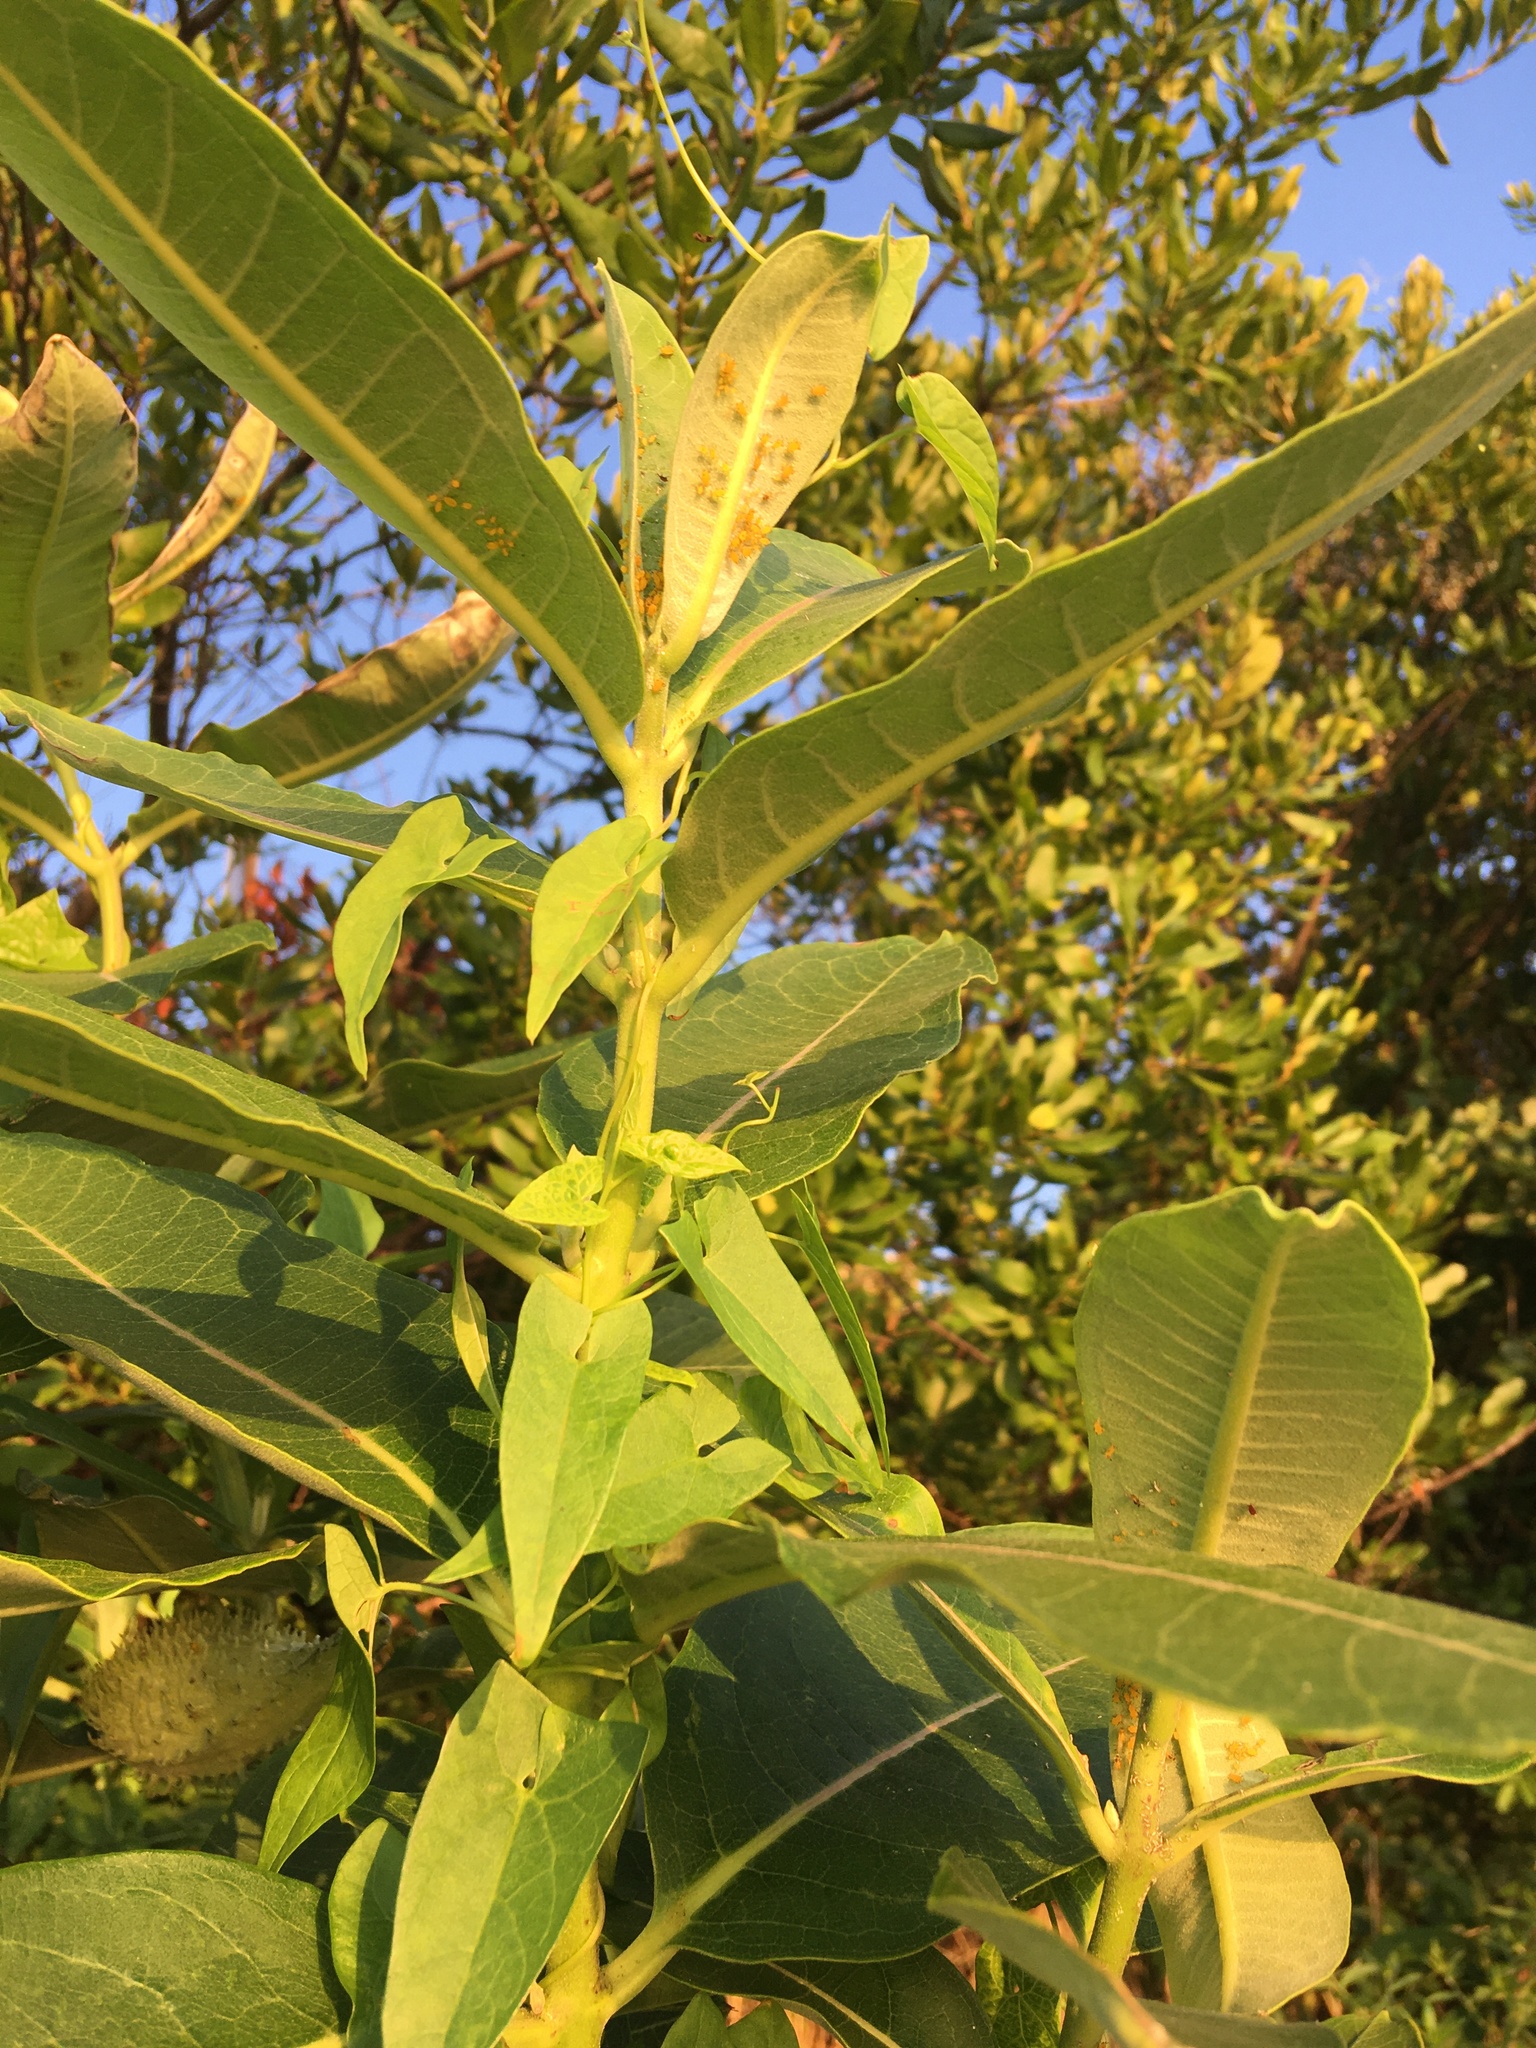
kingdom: Plantae
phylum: Tracheophyta
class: Magnoliopsida
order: Gentianales
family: Apocynaceae
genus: Asclepias
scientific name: Asclepias syriaca
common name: Common milkweed
